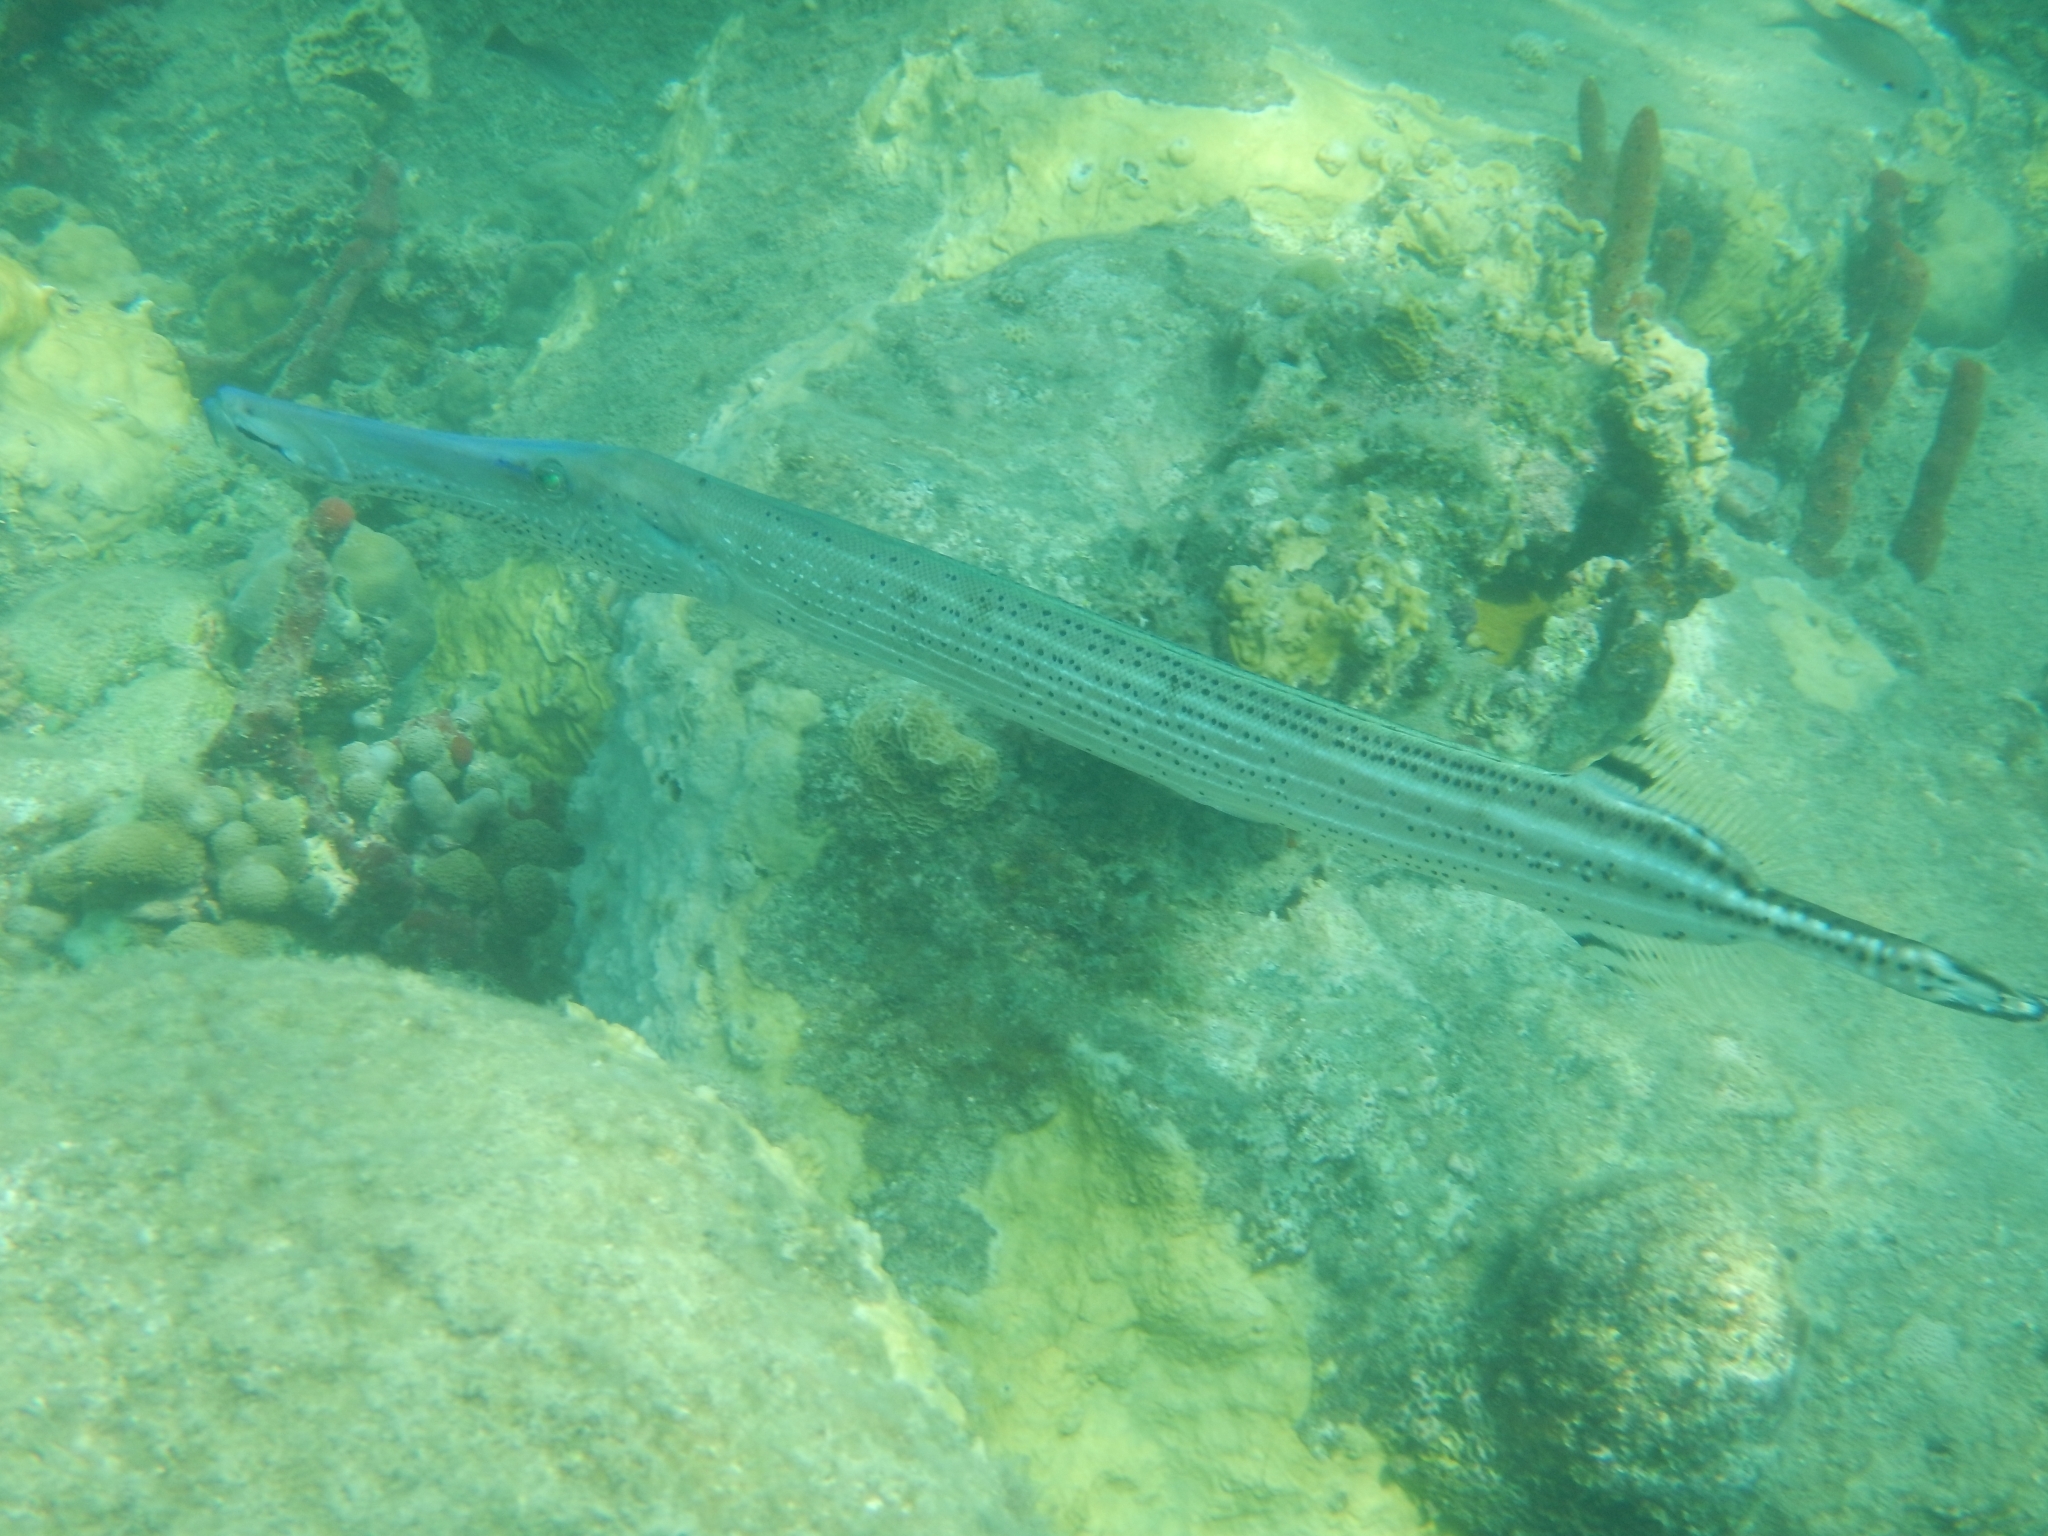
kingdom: Animalia
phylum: Chordata
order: Syngnathiformes
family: Aulostomidae
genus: Aulostomus
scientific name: Aulostomus maculatus
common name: West atlantic trumpetfish
